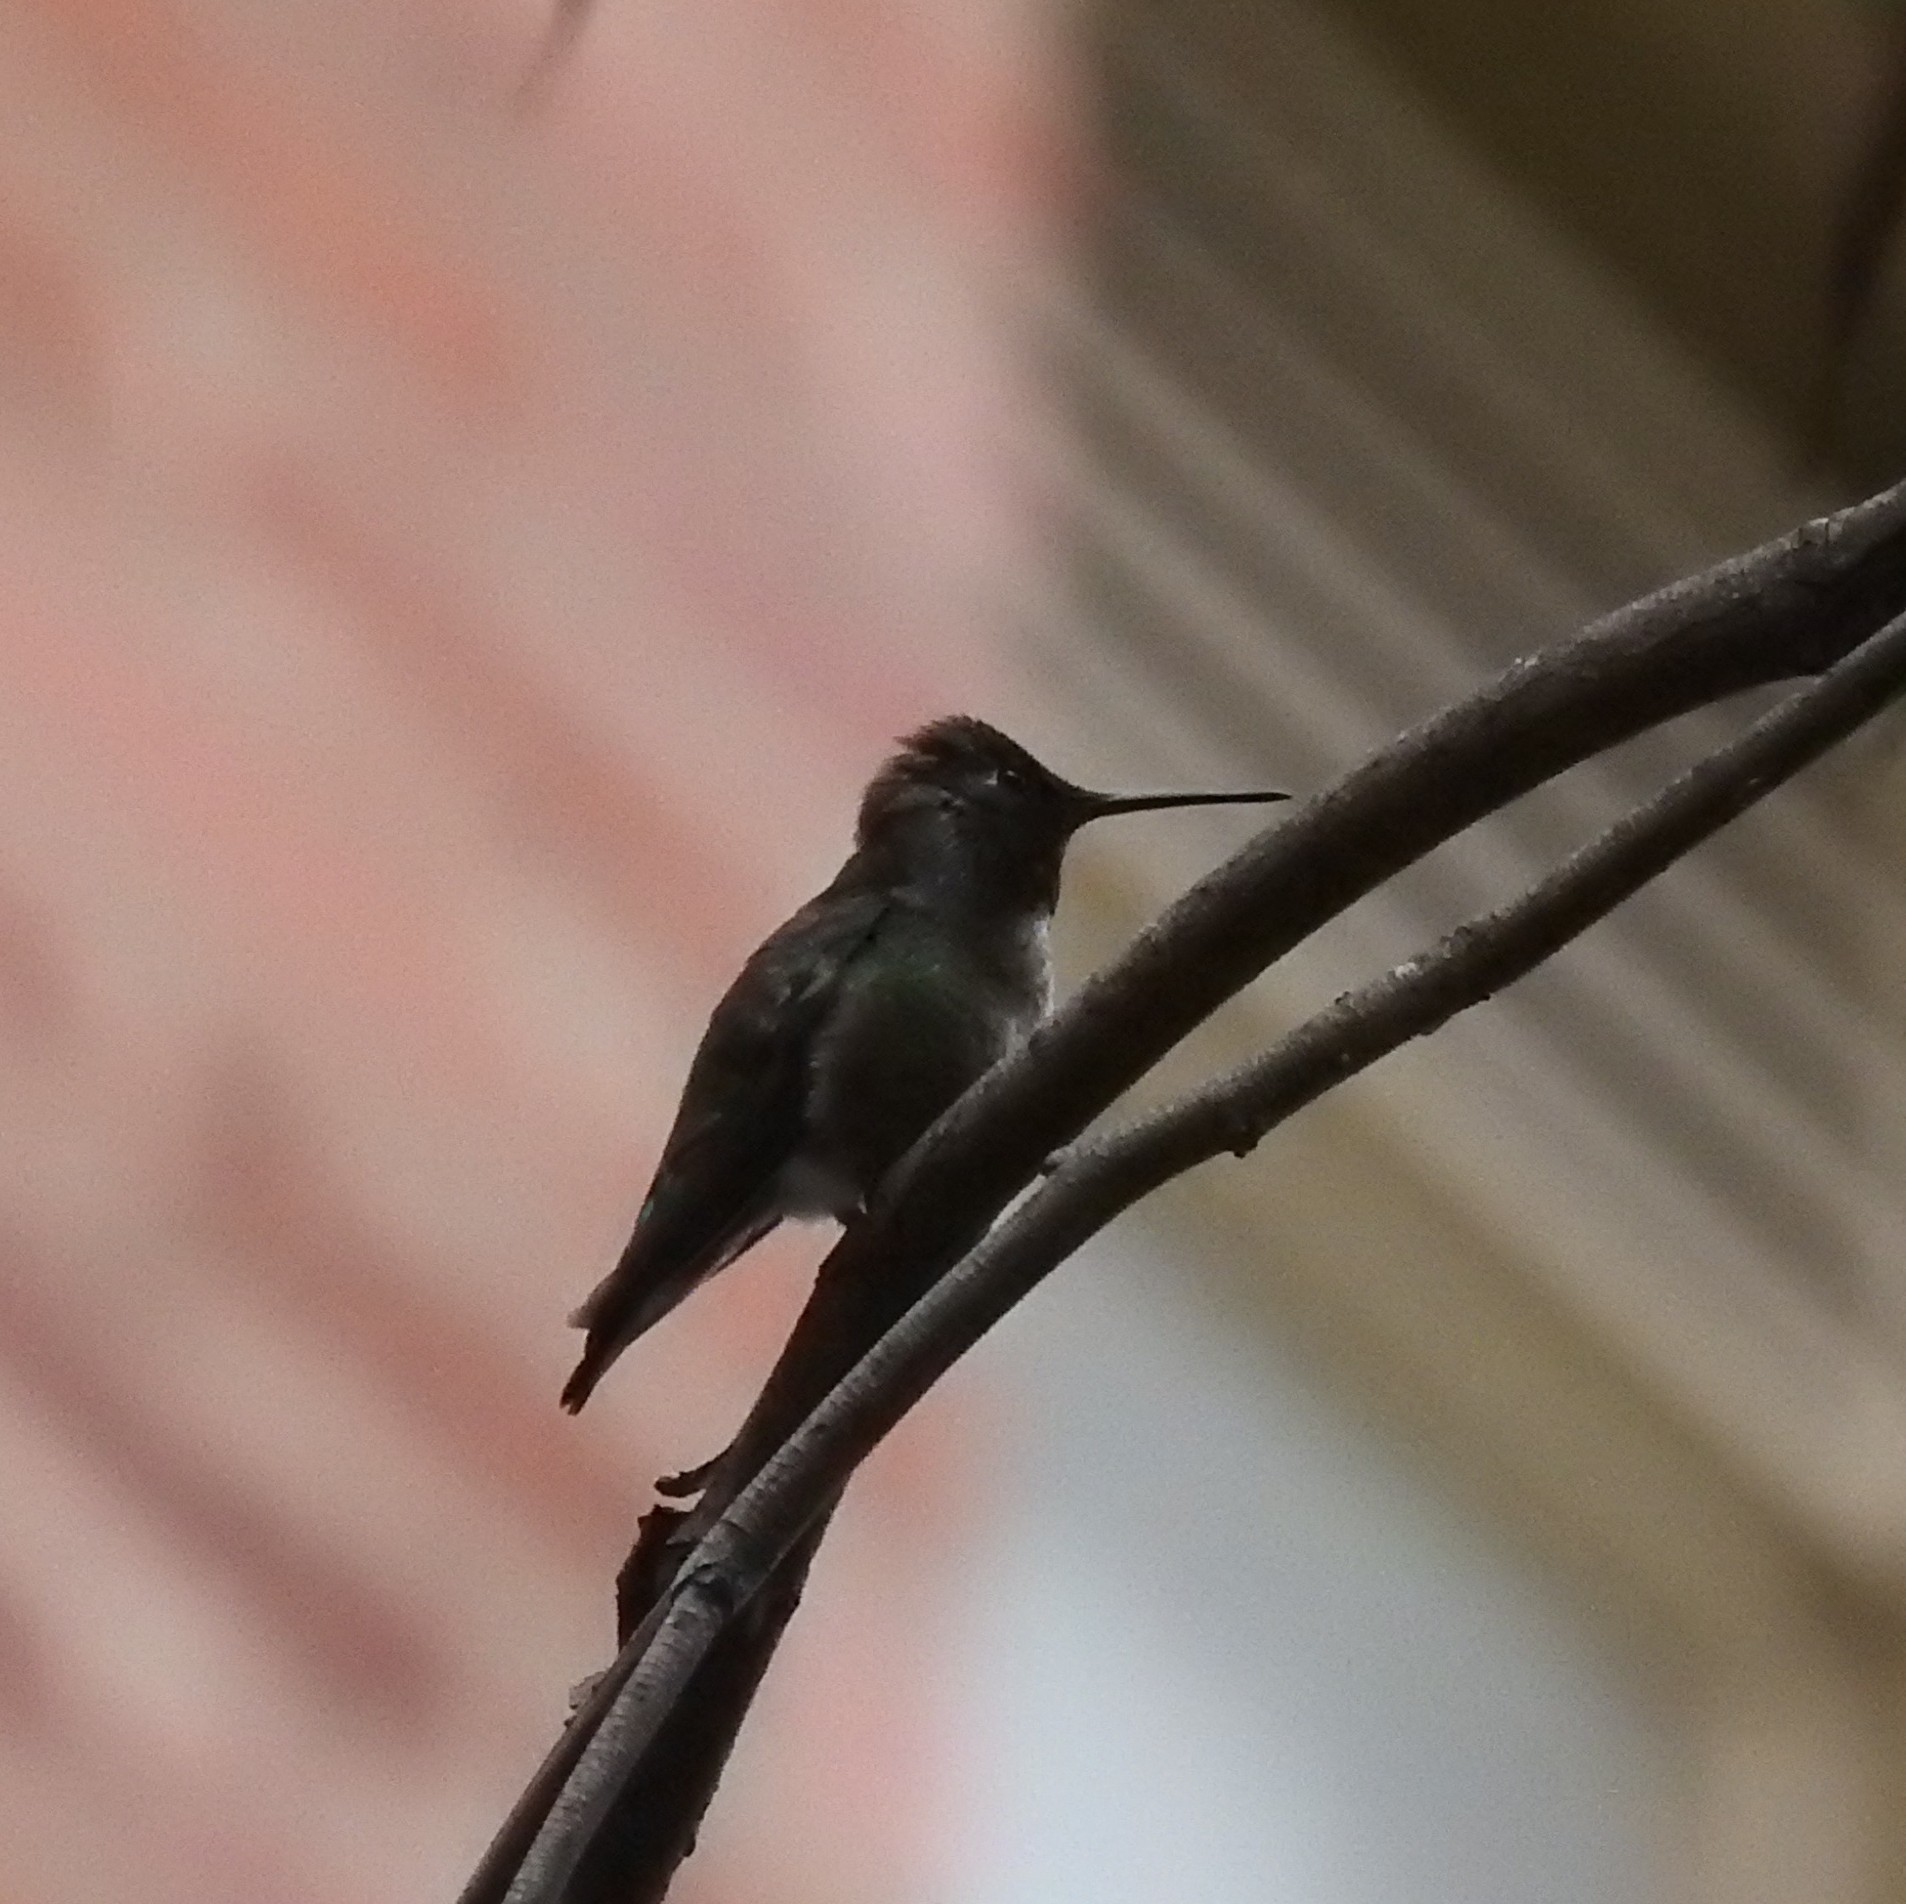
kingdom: Animalia
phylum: Chordata
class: Aves
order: Apodiformes
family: Trochilidae
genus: Calypte
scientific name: Calypte anna
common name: Anna's hummingbird
